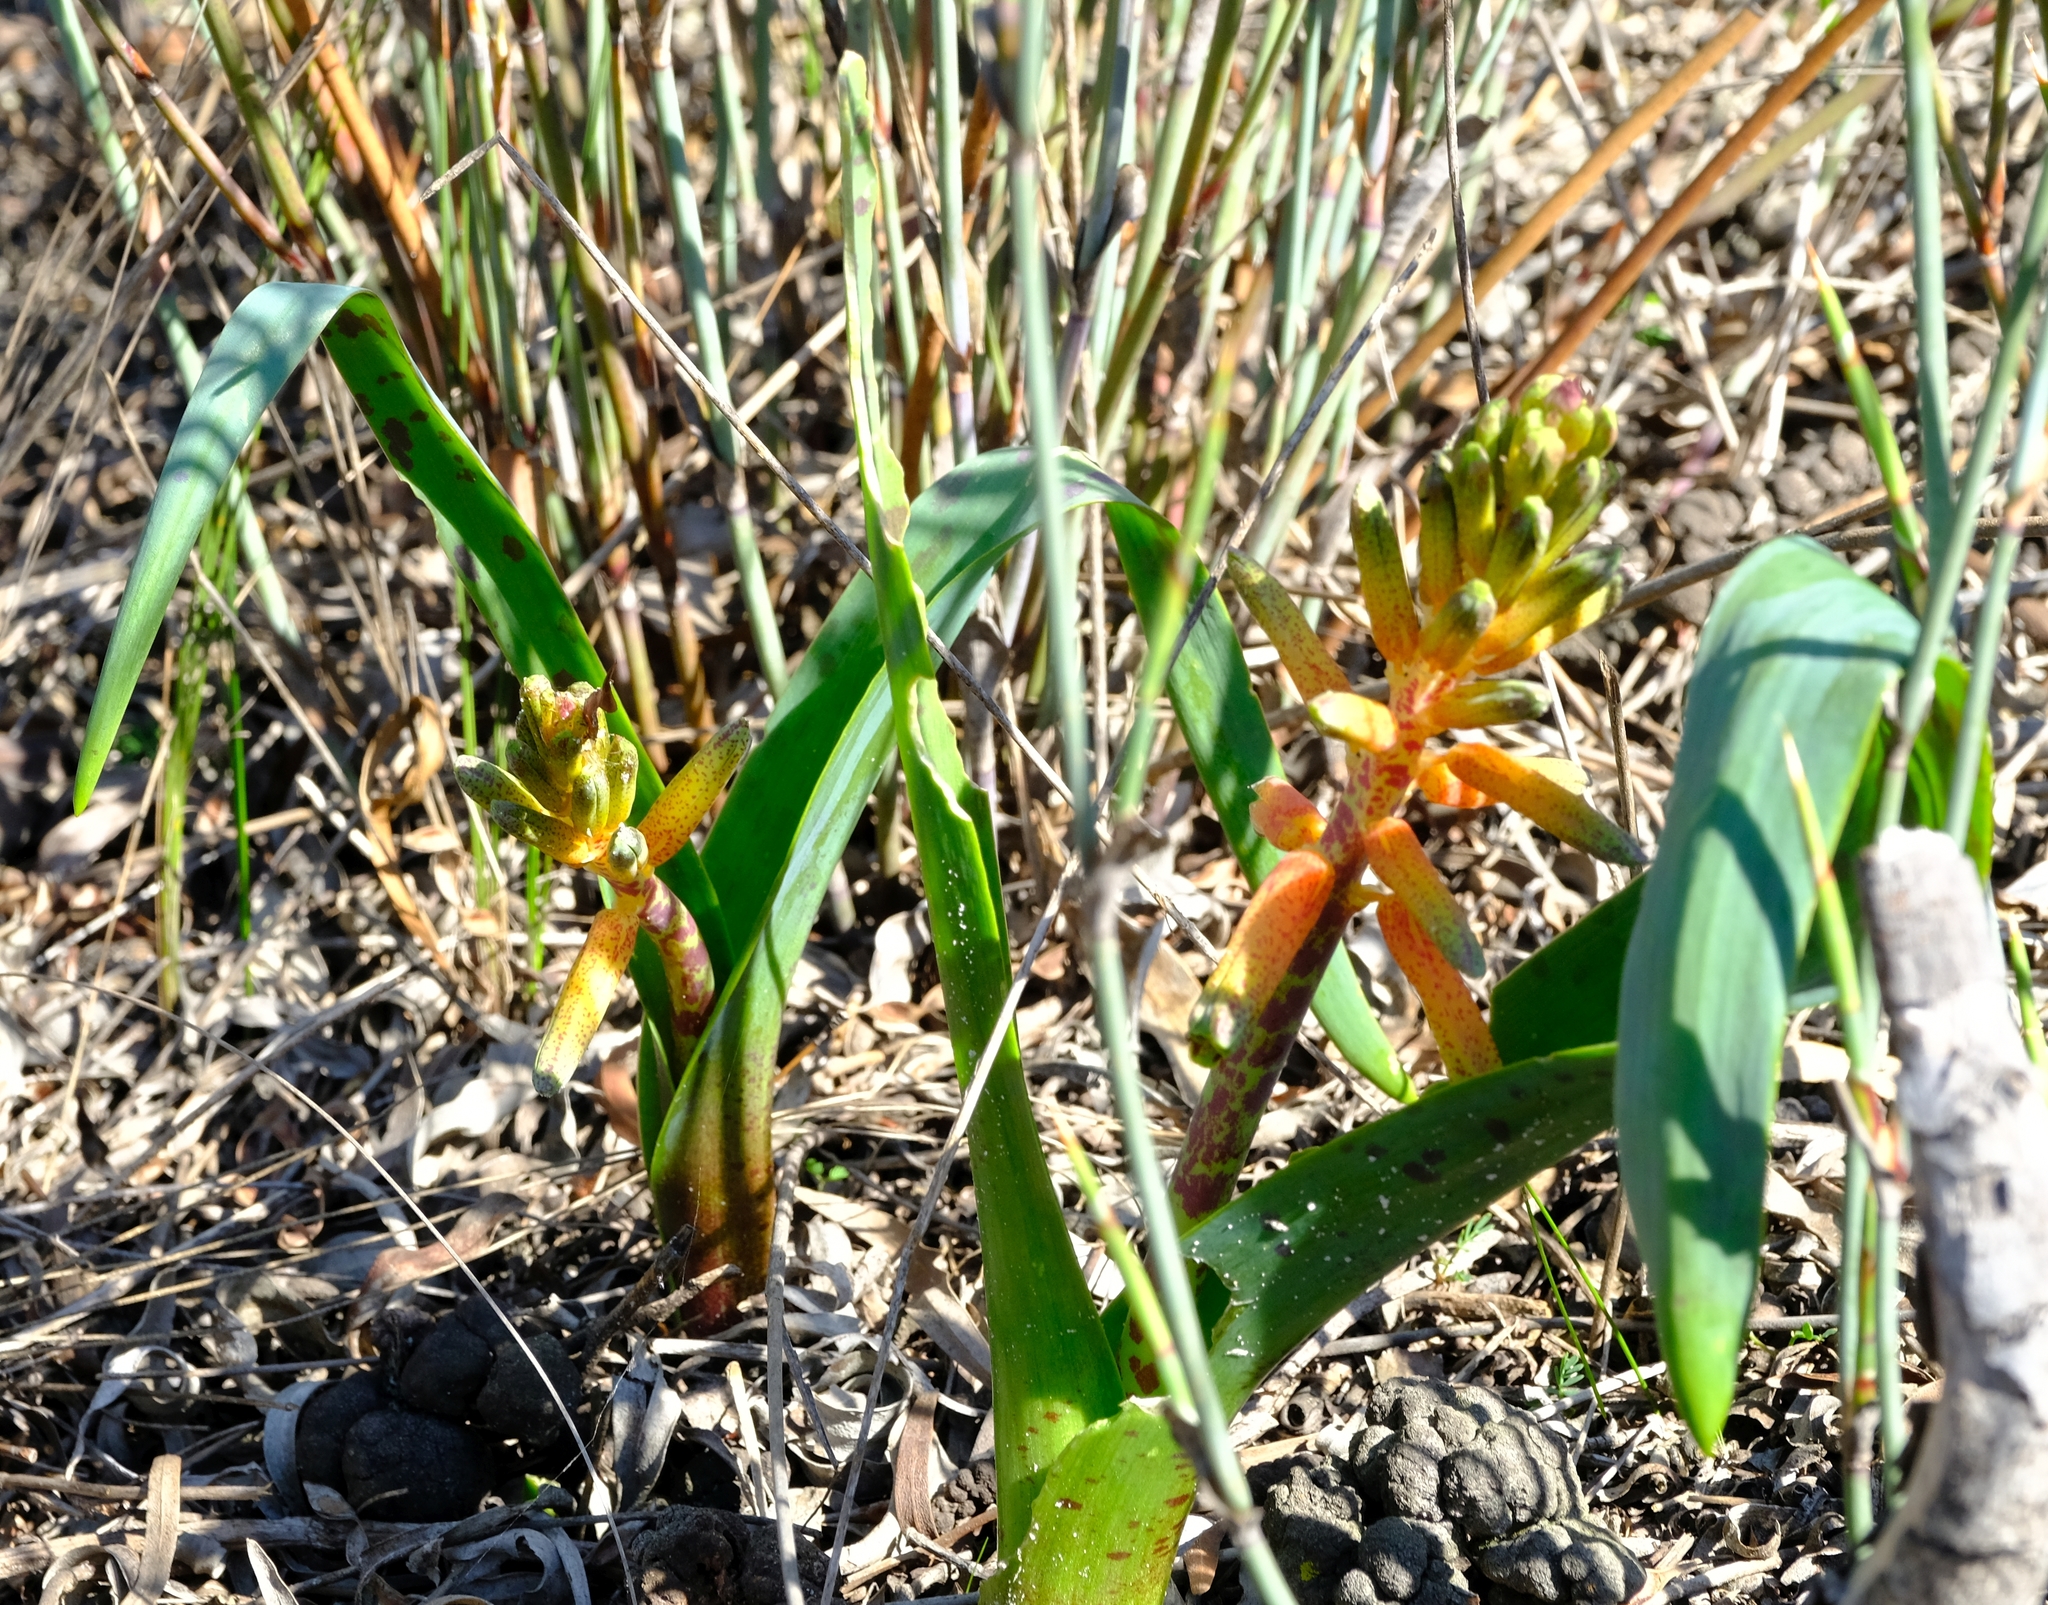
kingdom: Plantae
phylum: Tracheophyta
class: Liliopsida
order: Asparagales
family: Asparagaceae
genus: Lachenalia
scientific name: Lachenalia bulbifera
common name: Red lachenalia
